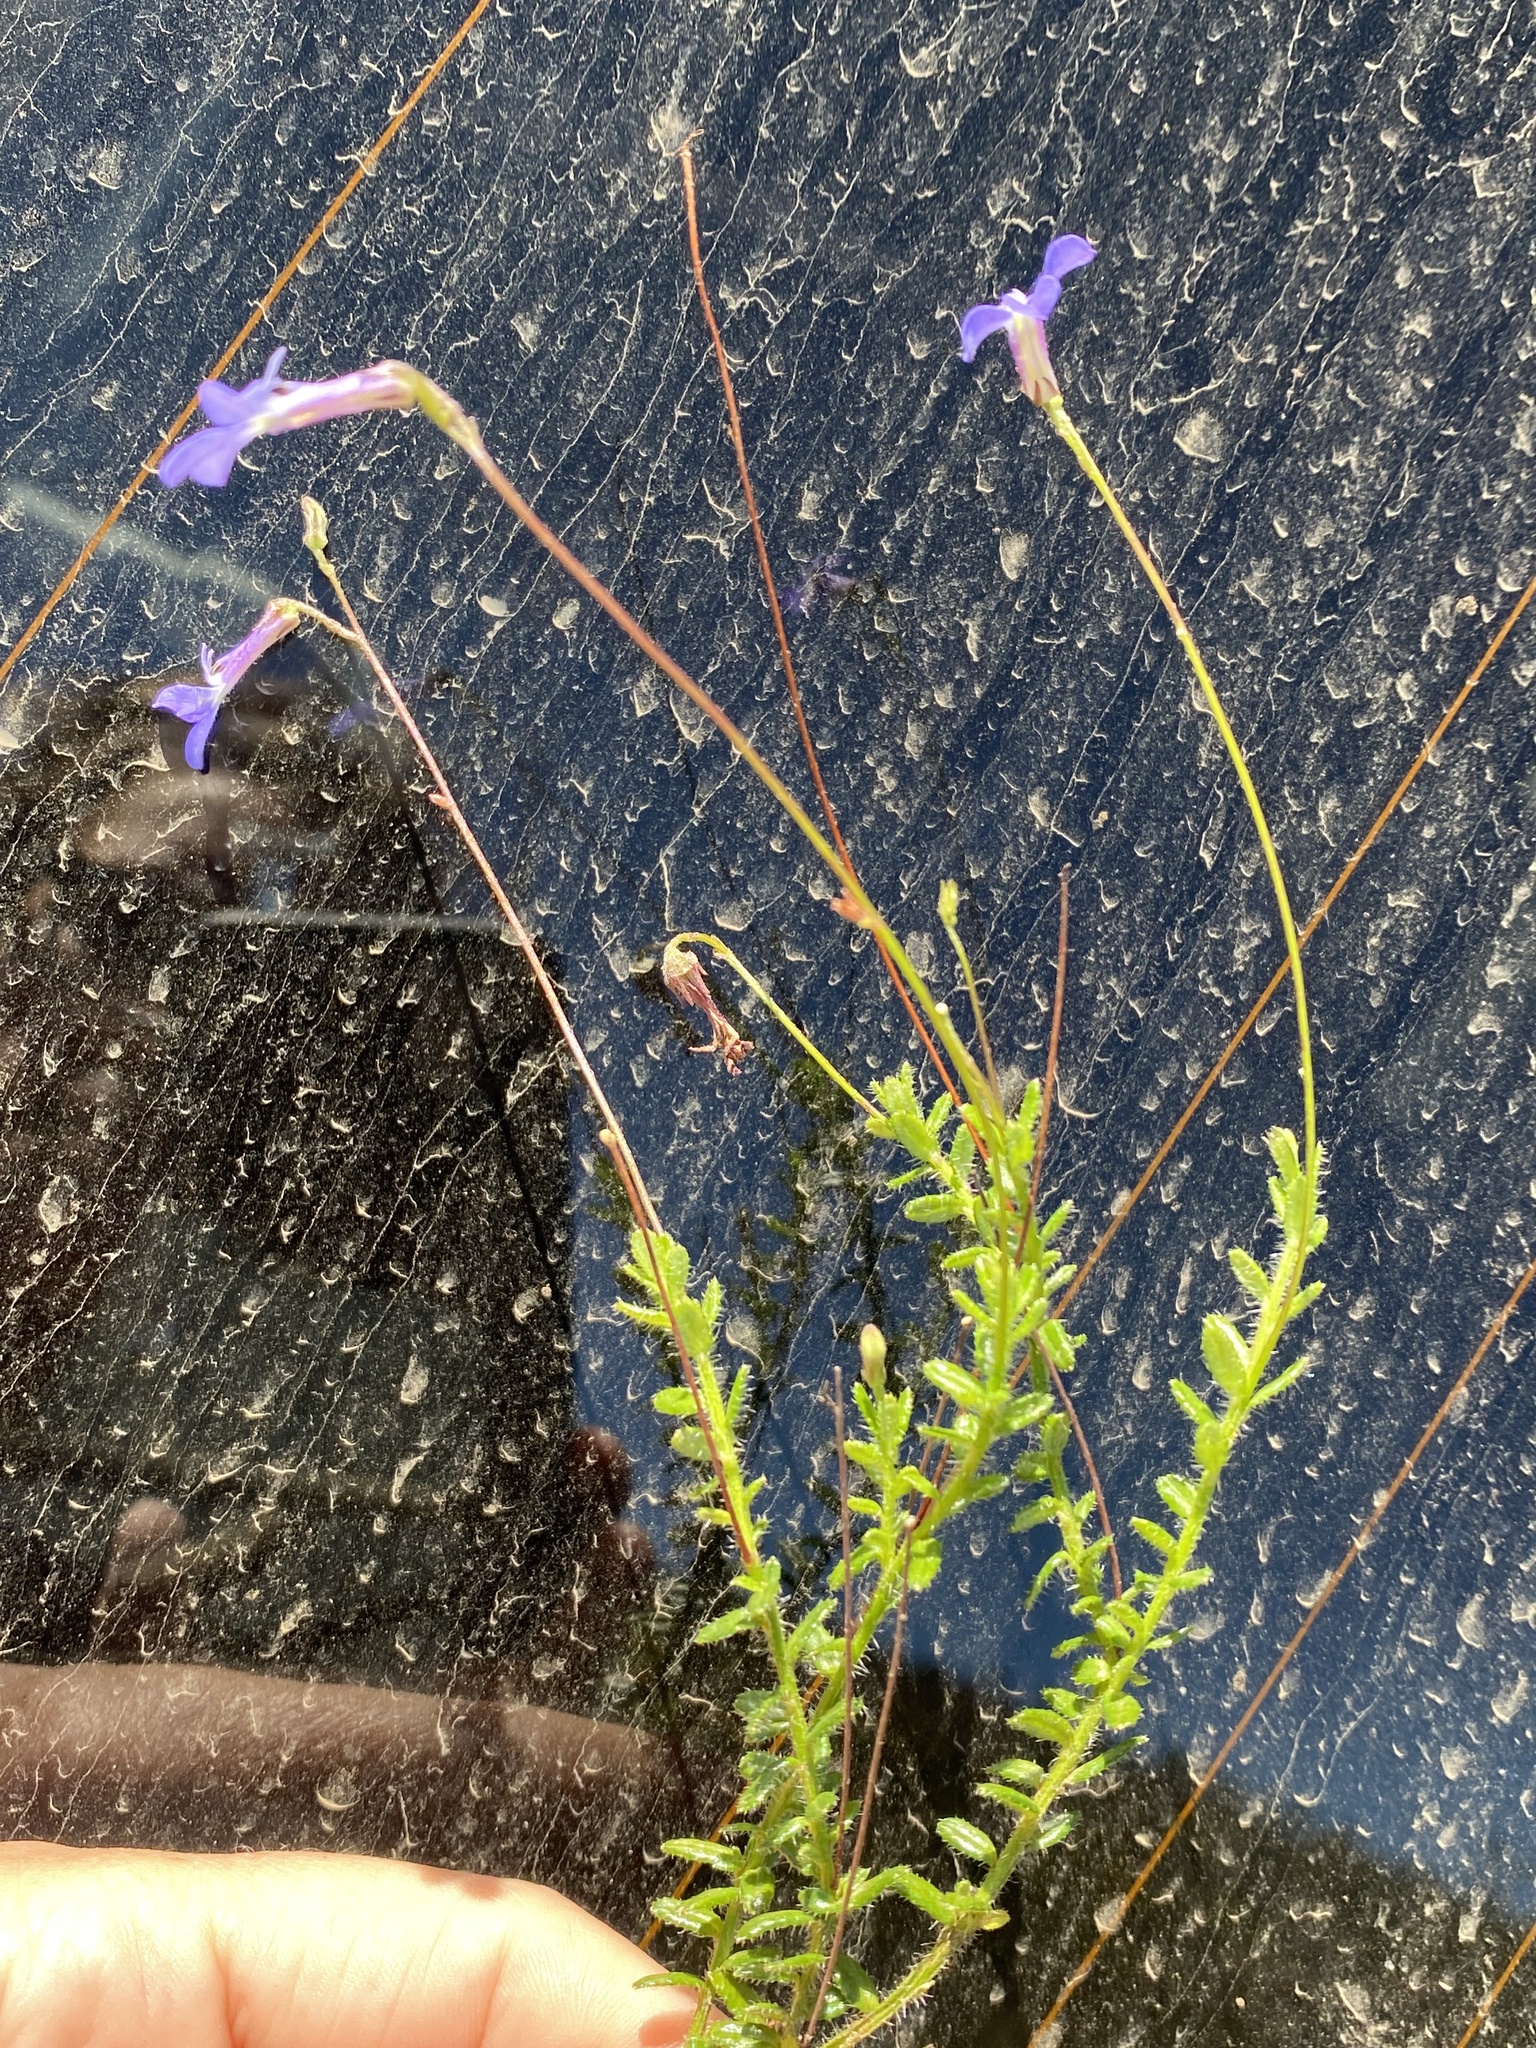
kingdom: Plantae
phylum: Tracheophyta
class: Magnoliopsida
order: Asterales
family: Campanulaceae
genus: Lobelia
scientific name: Lobelia neglecta
